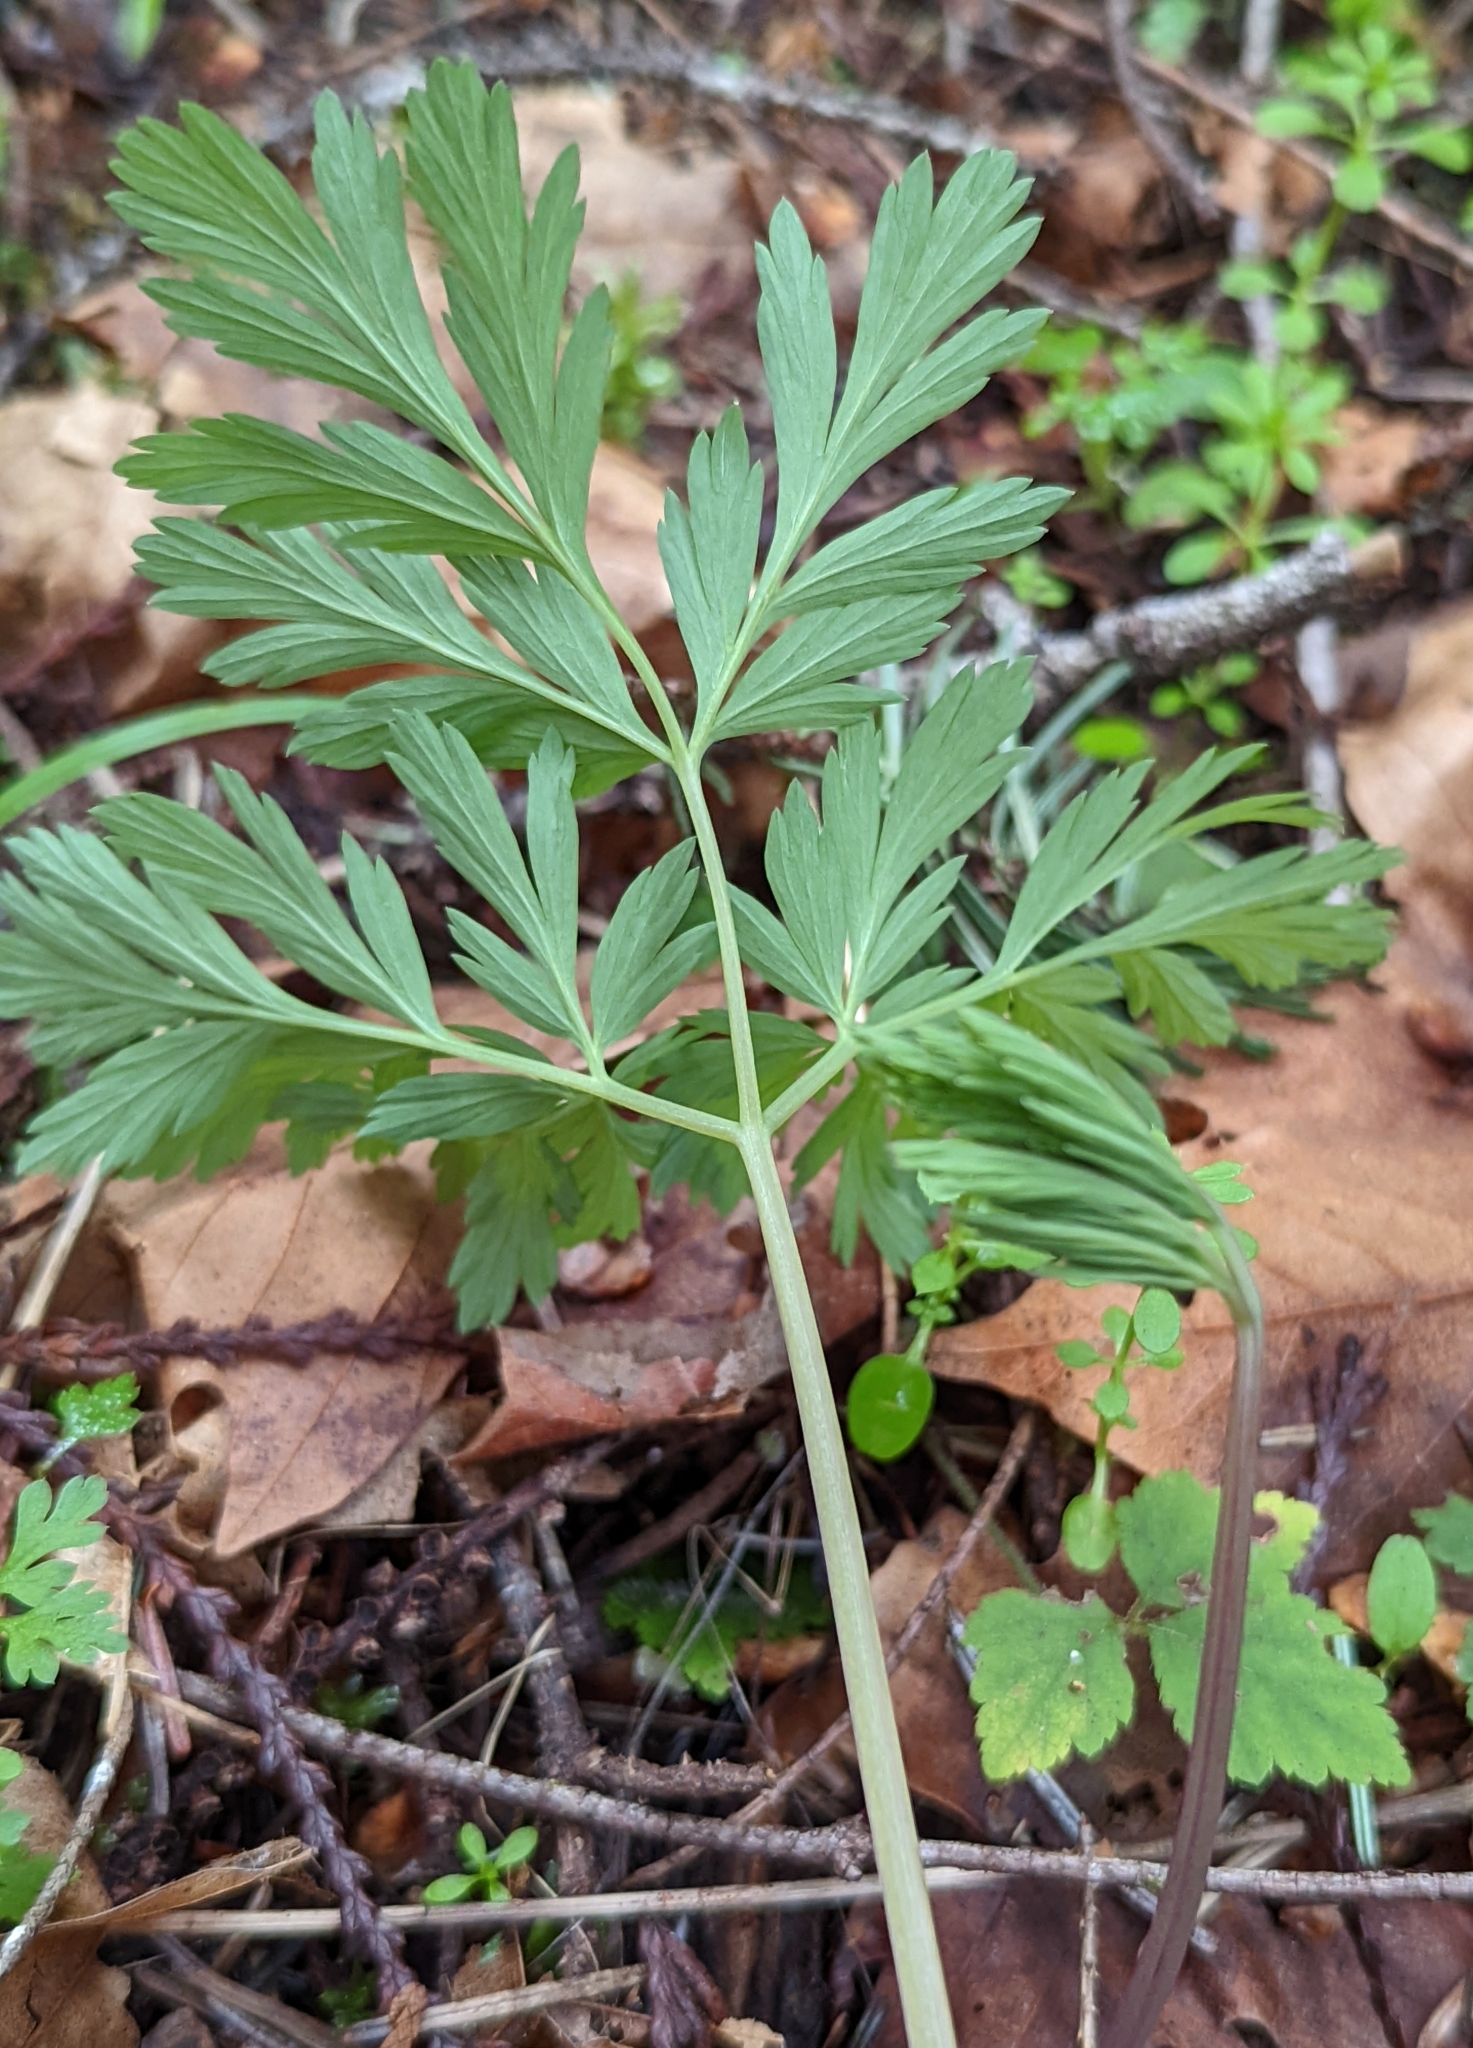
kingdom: Plantae
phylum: Tracheophyta
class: Magnoliopsida
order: Ranunculales
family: Papaveraceae
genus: Dicentra
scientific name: Dicentra formosa
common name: Bleeding-heart
